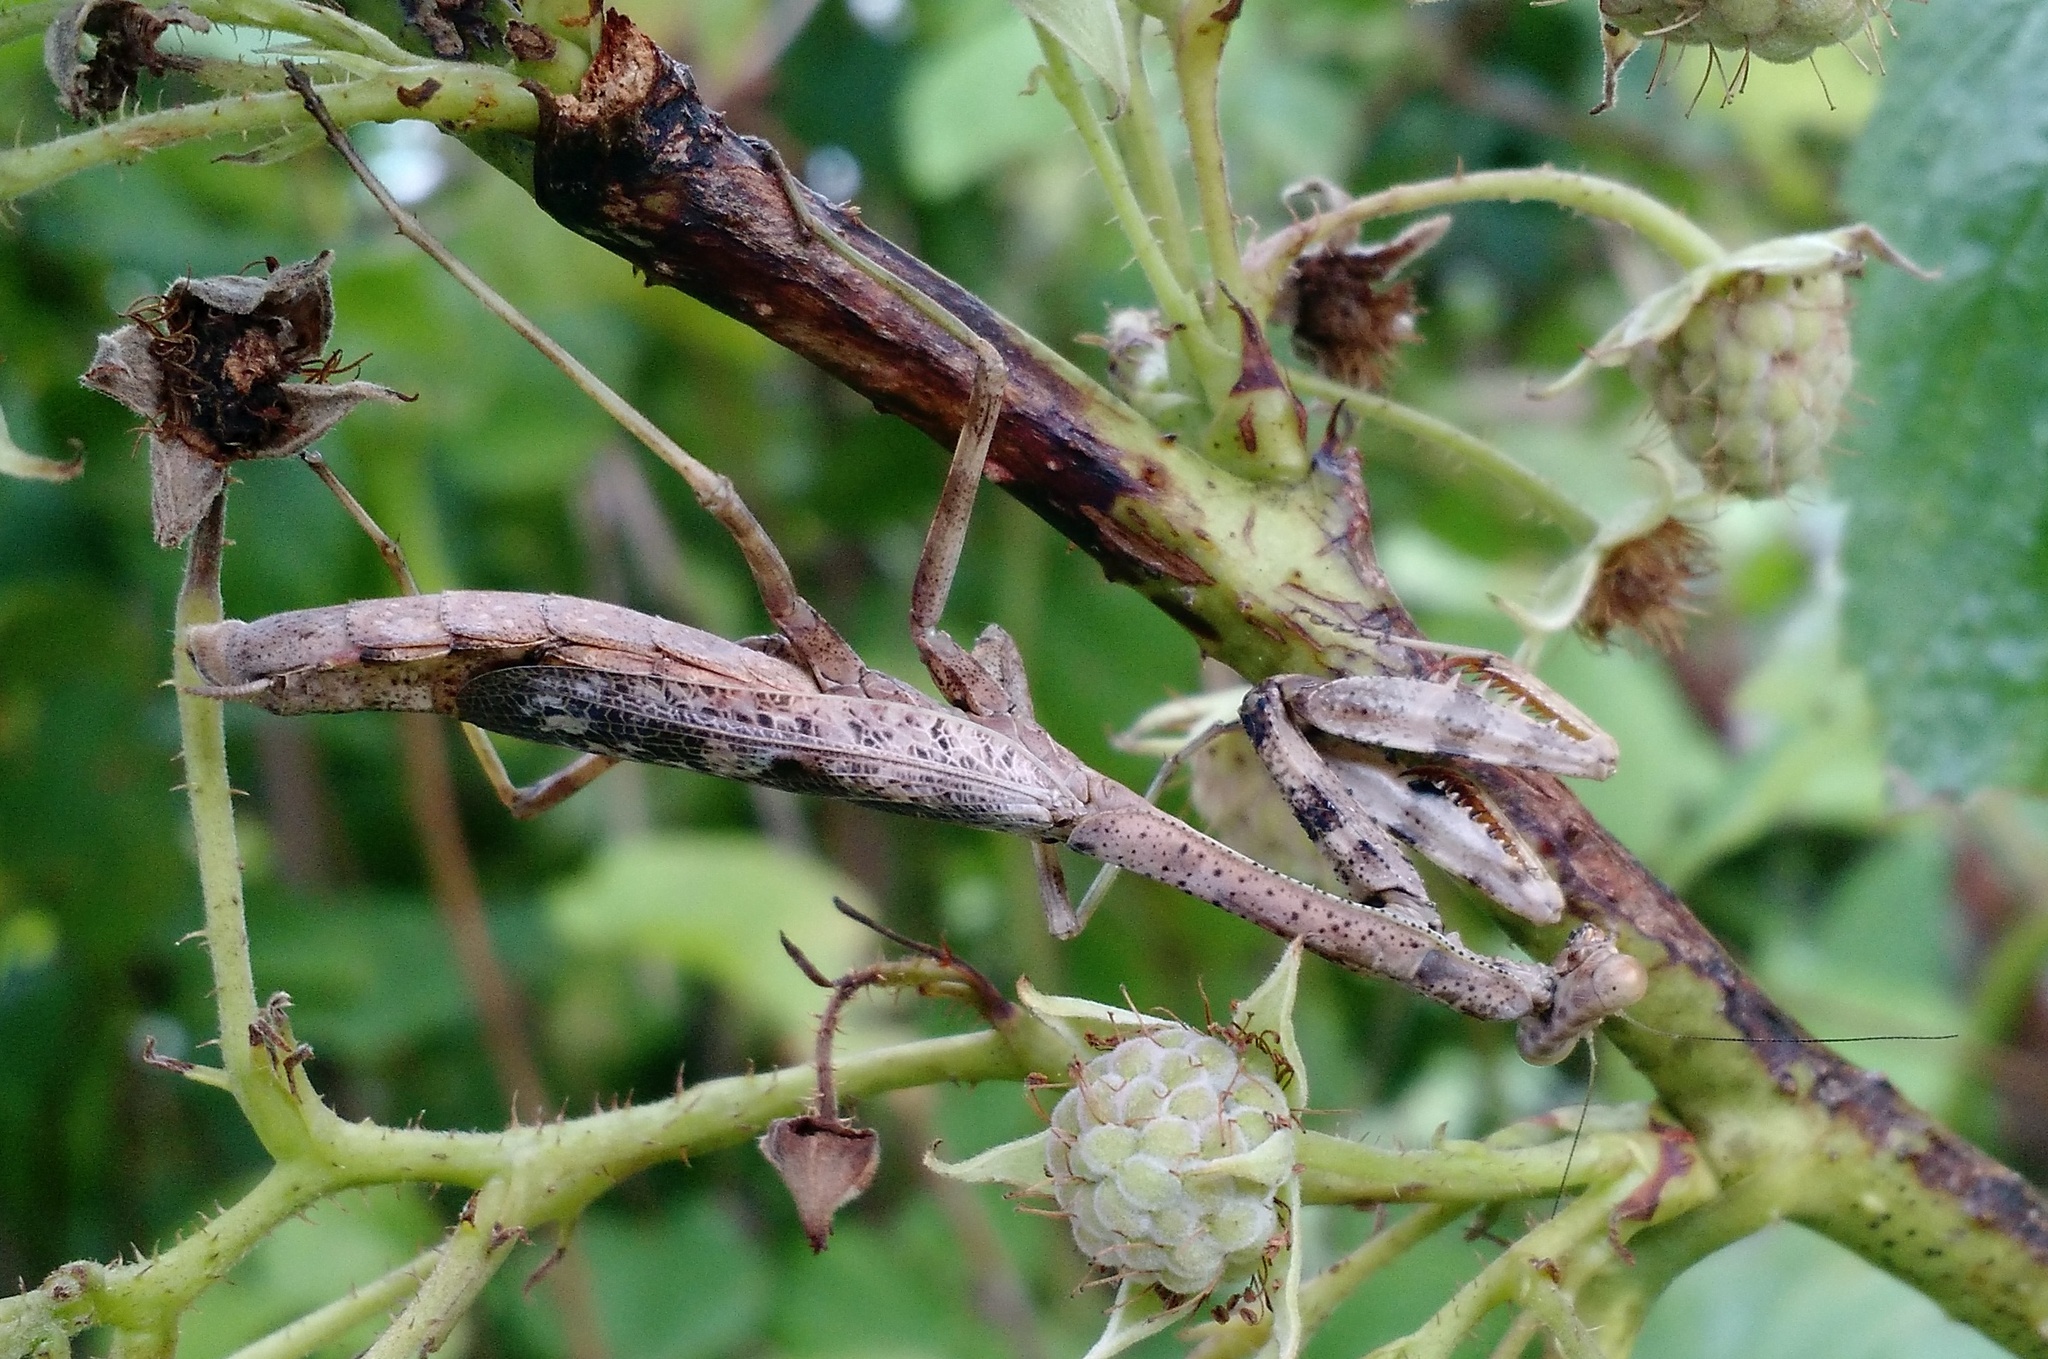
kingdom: Animalia
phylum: Arthropoda
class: Insecta
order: Mantodea
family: Mantidae
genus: Stagmomantis
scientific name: Stagmomantis carolina
